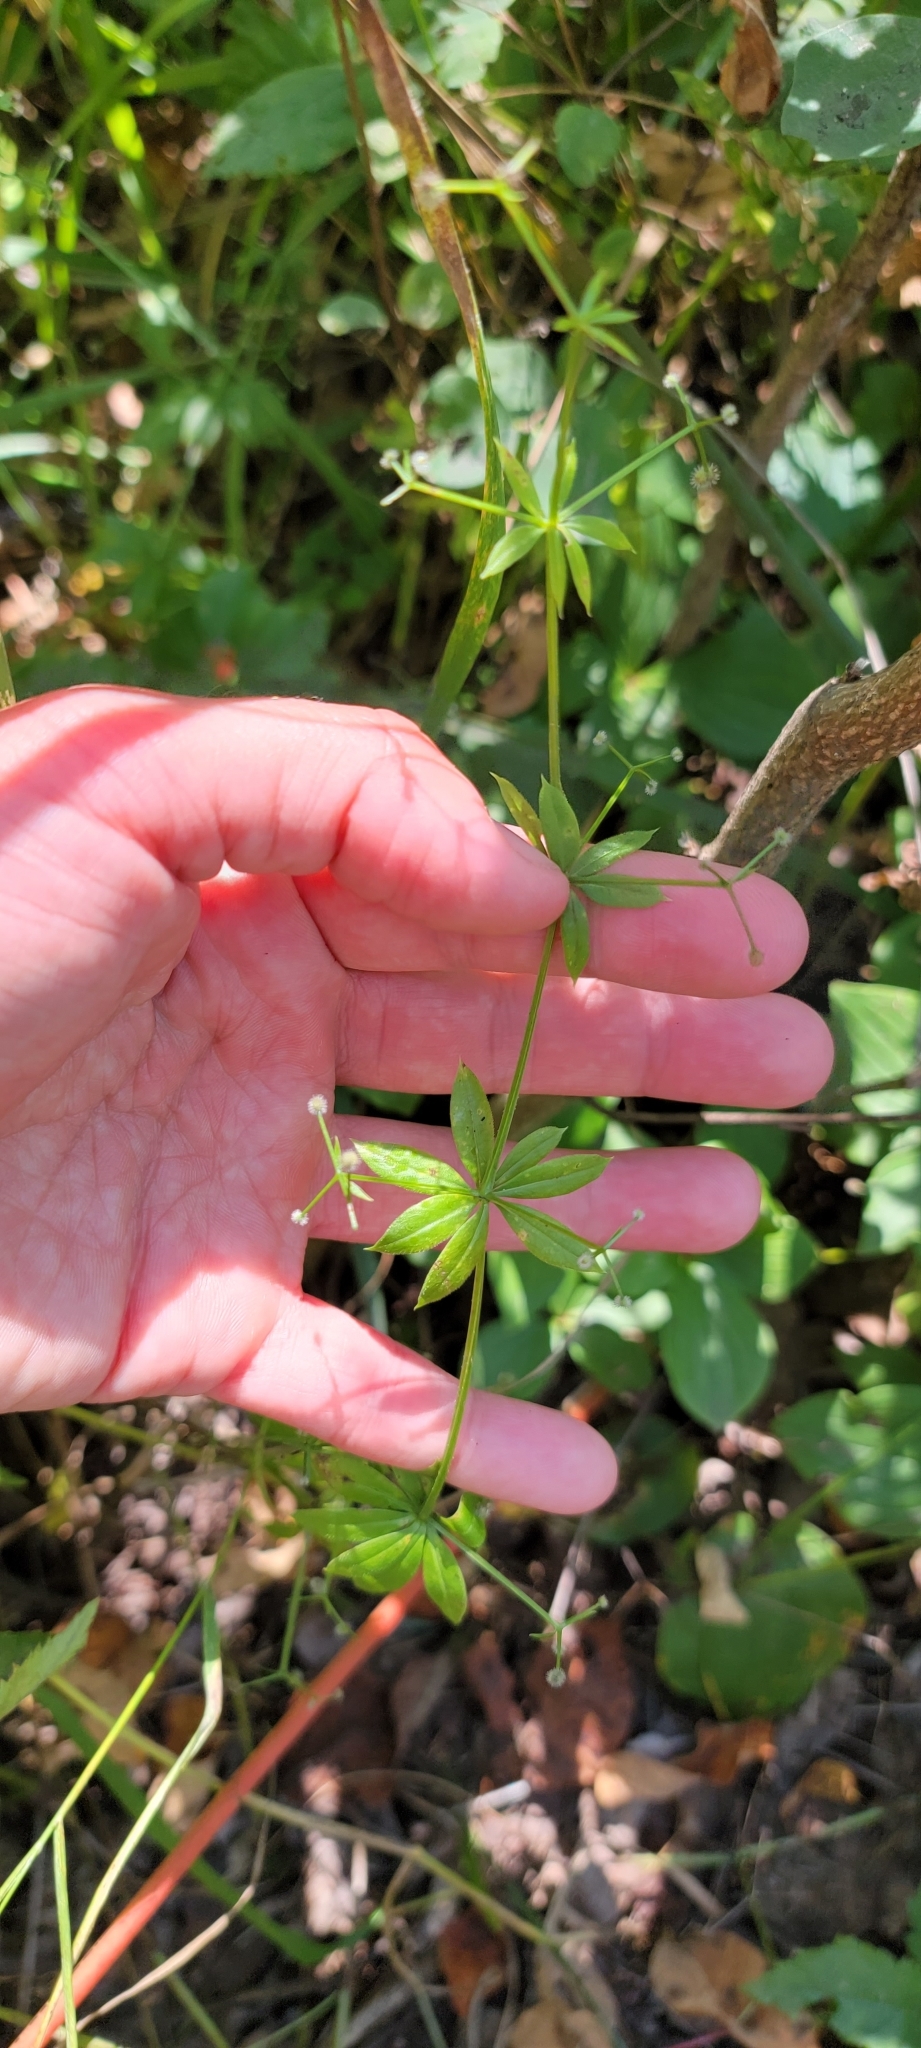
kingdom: Plantae
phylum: Tracheophyta
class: Magnoliopsida
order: Gentianales
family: Rubiaceae
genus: Galium
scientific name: Galium triflorum
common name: Fragrant bedstraw
